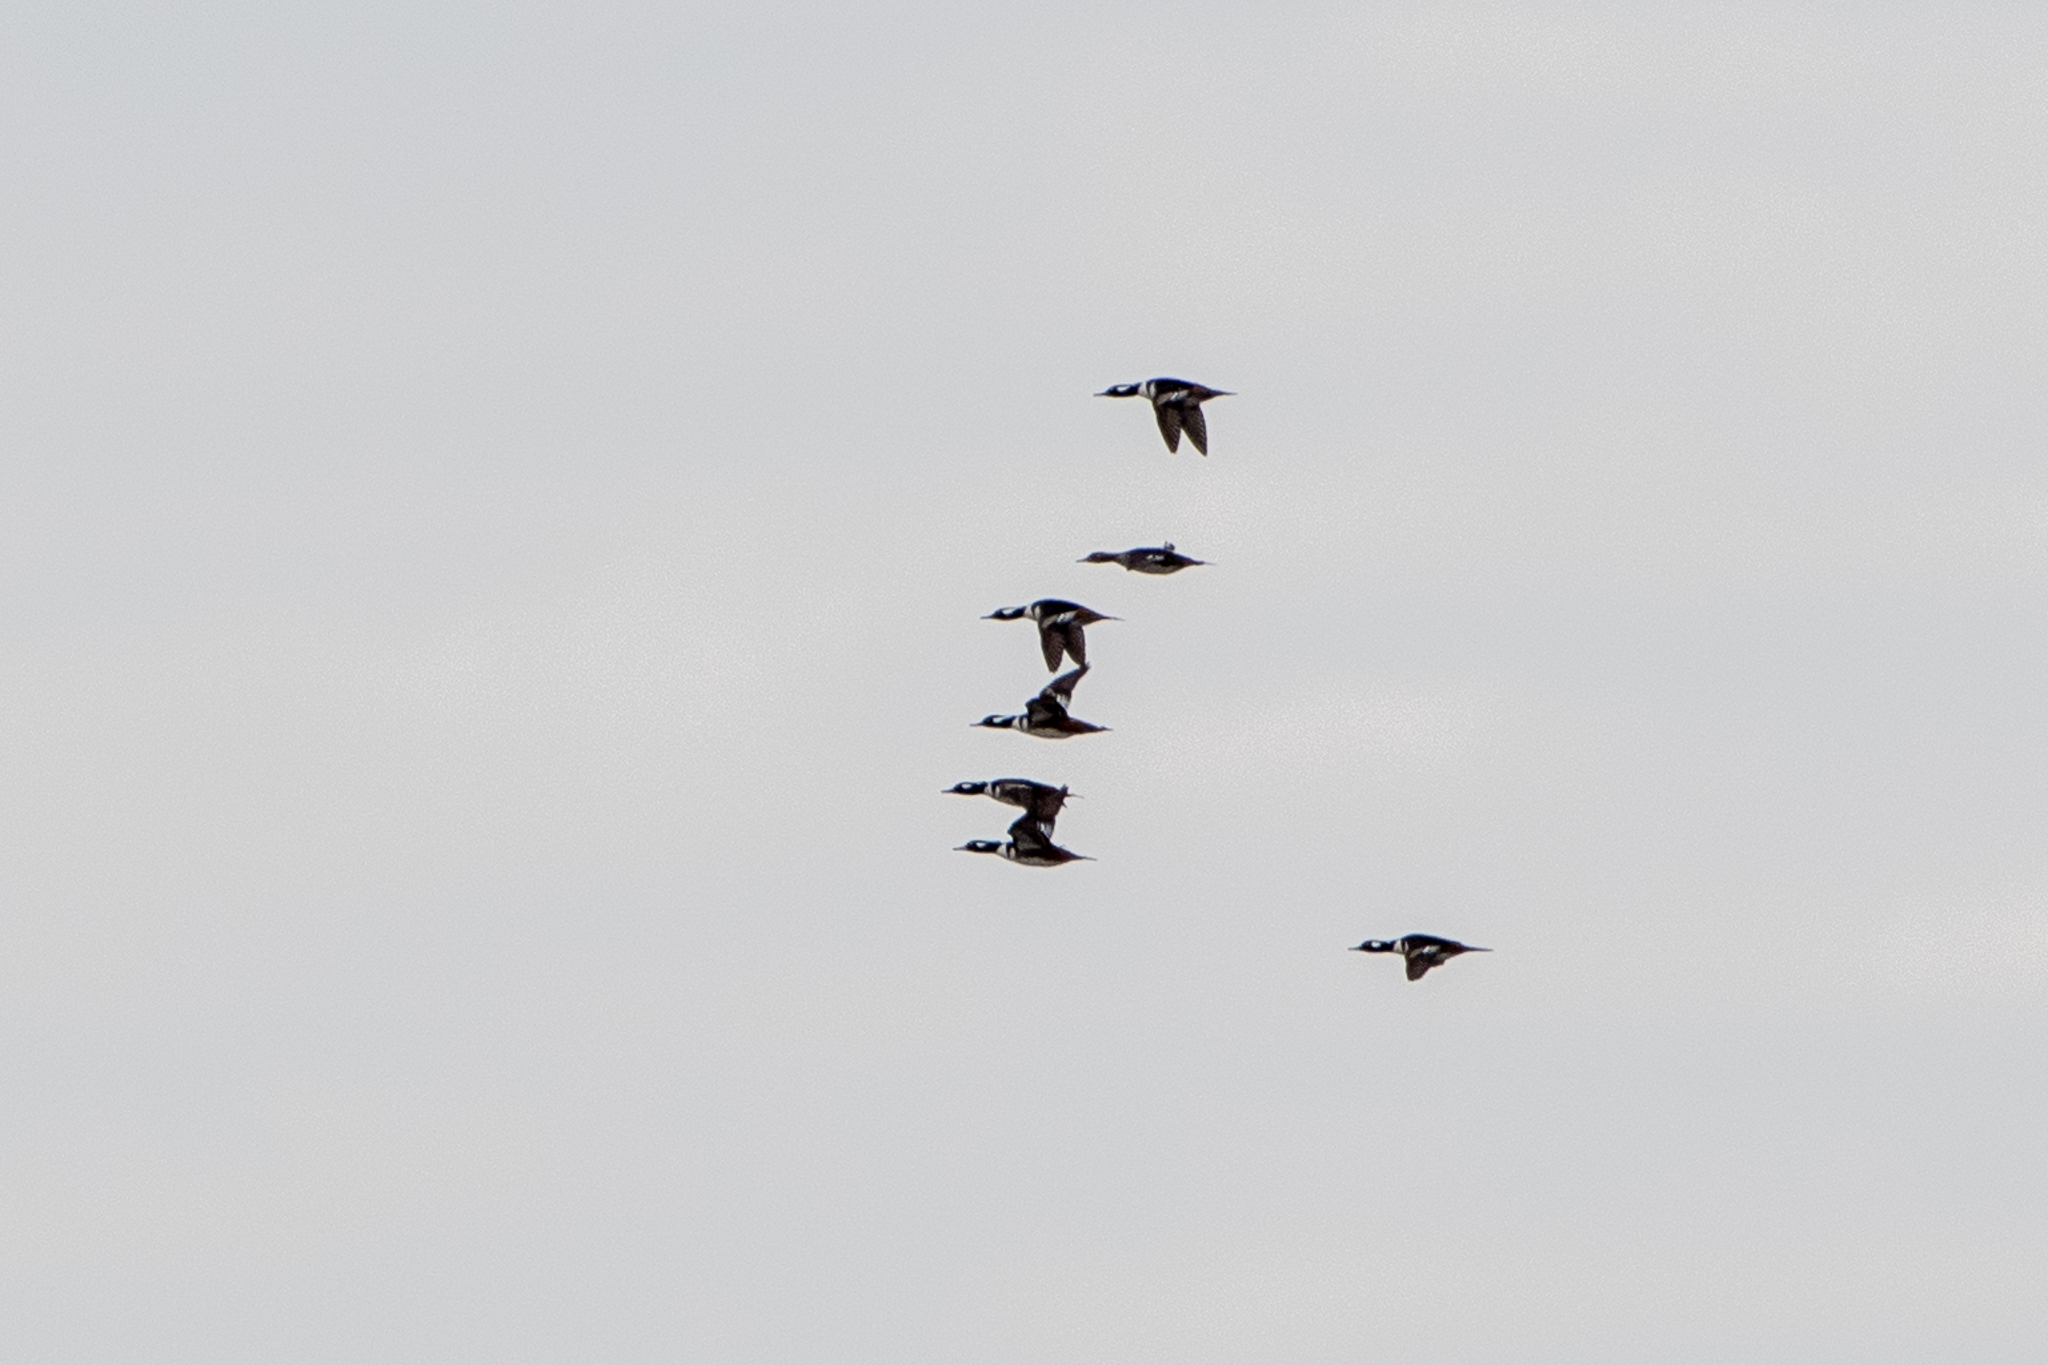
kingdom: Animalia
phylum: Chordata
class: Aves
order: Anseriformes
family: Anatidae
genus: Lophodytes
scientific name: Lophodytes cucullatus
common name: Hooded merganser
